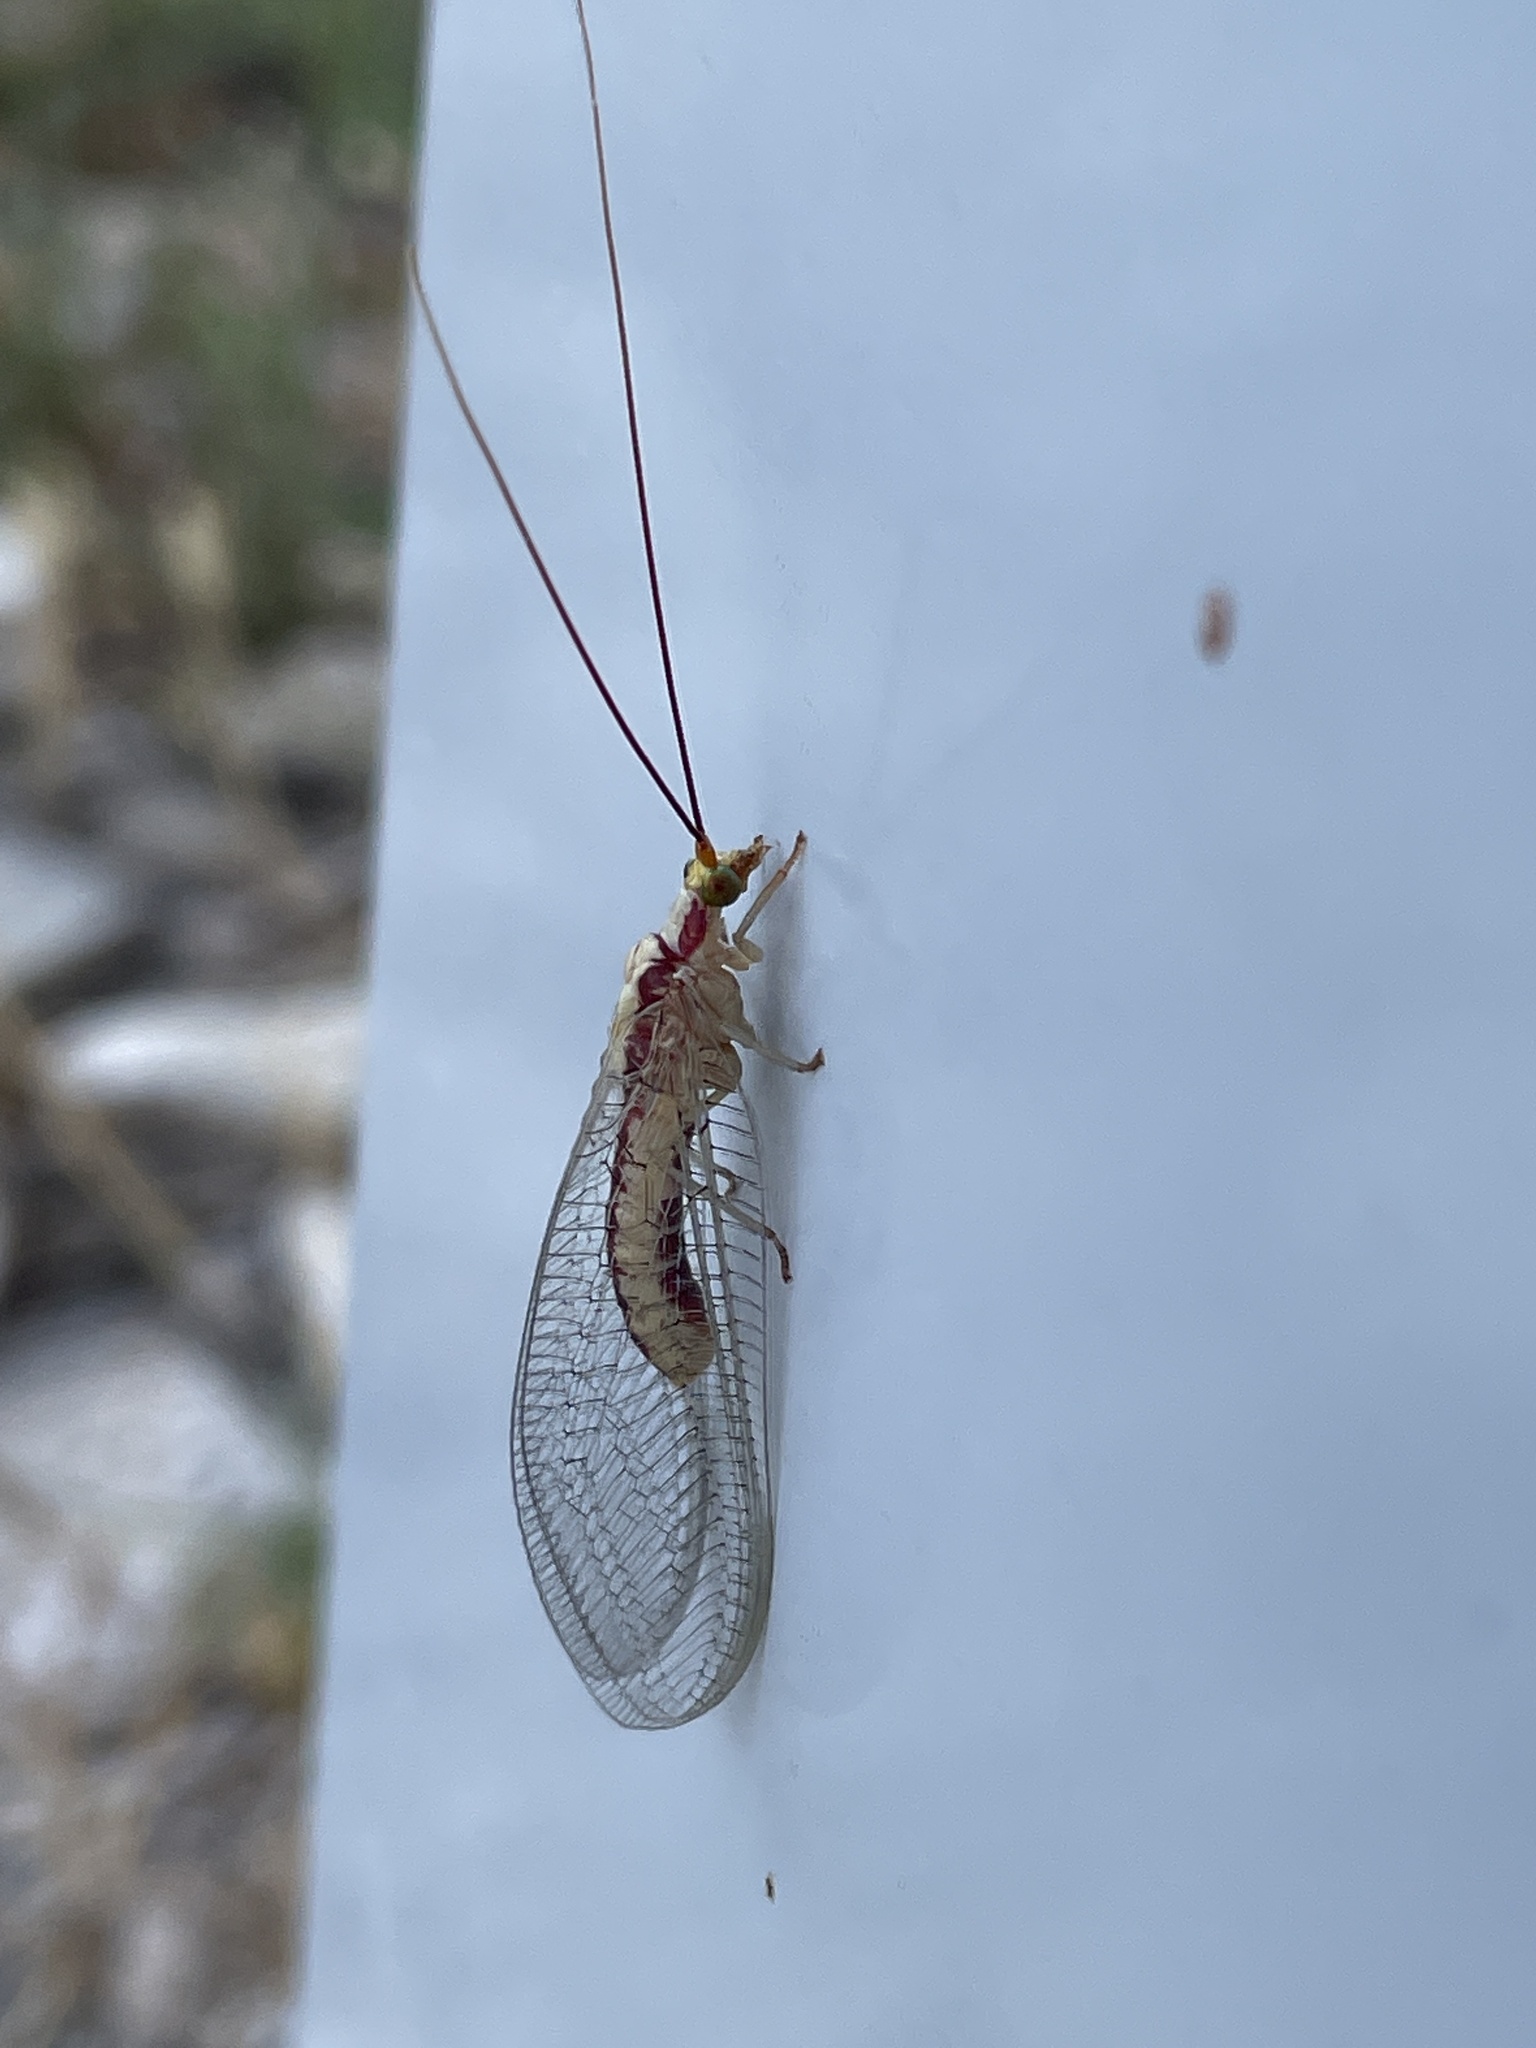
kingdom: Animalia
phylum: Arthropoda
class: Insecta
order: Neuroptera
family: Chrysopidae
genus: Italochrysa
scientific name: Italochrysa italica
